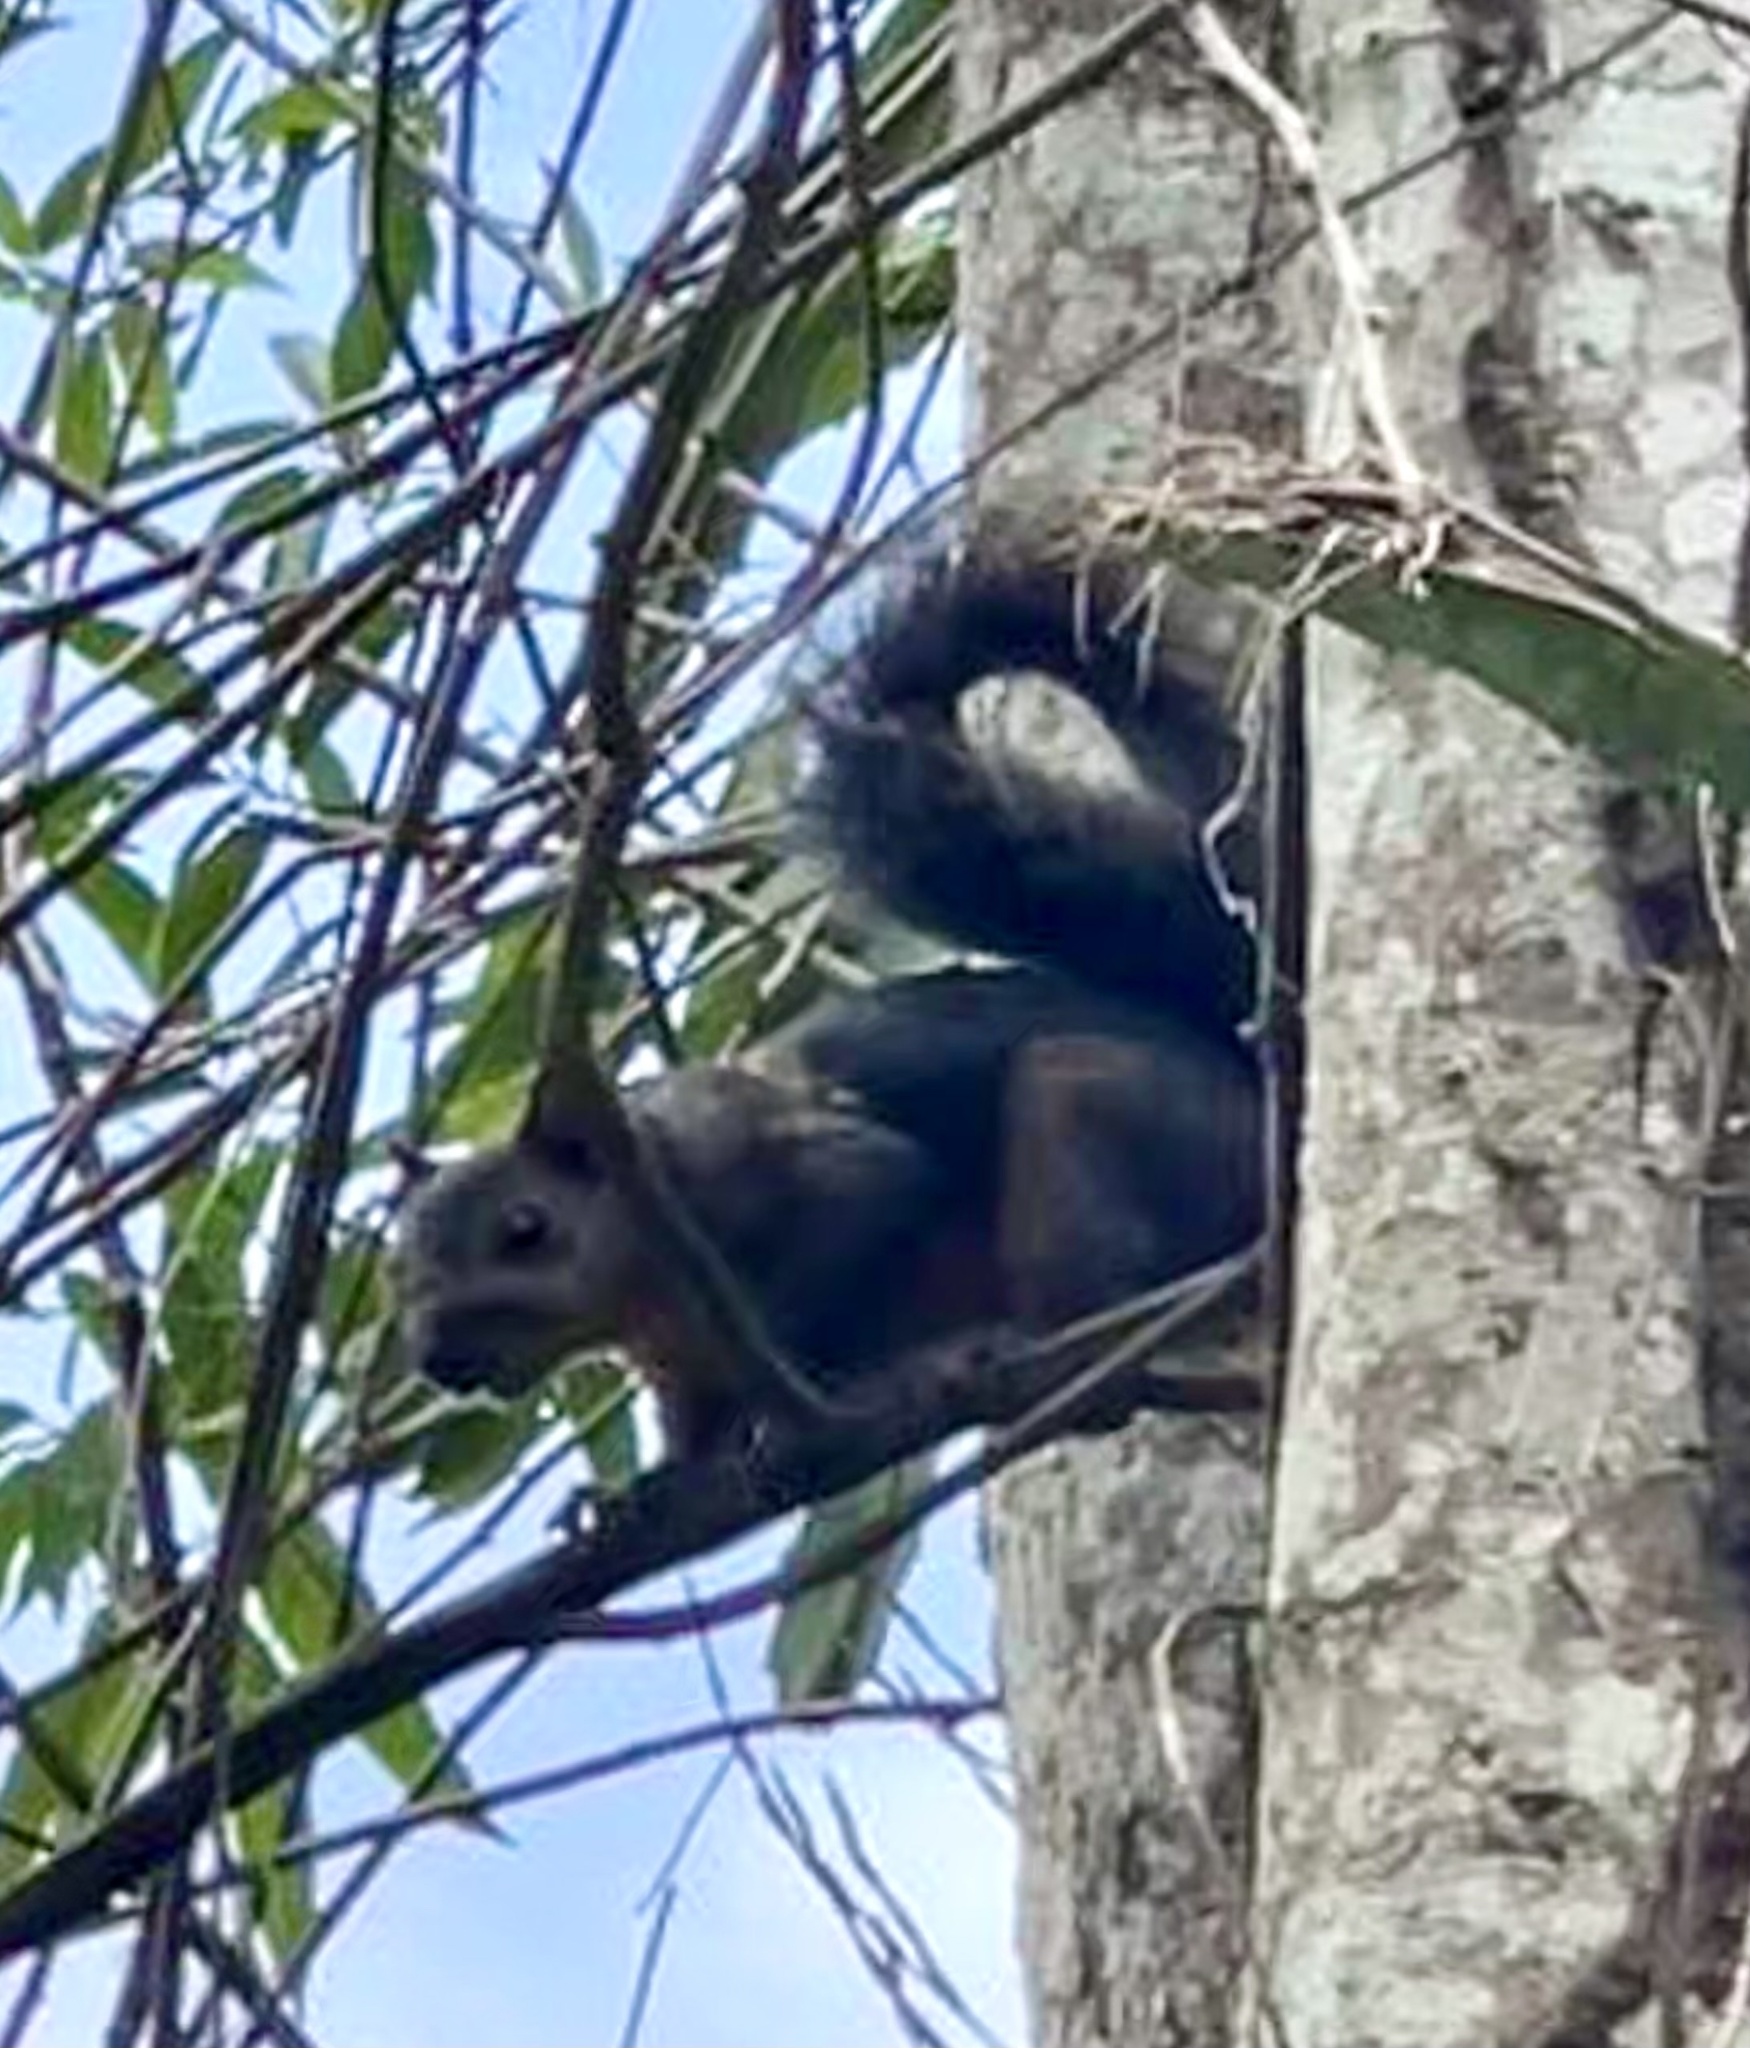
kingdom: Animalia
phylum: Chordata
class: Mammalia
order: Rodentia
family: Sciuridae
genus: Sciurus
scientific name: Sciurus variegatoides
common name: Variegated squirrel
